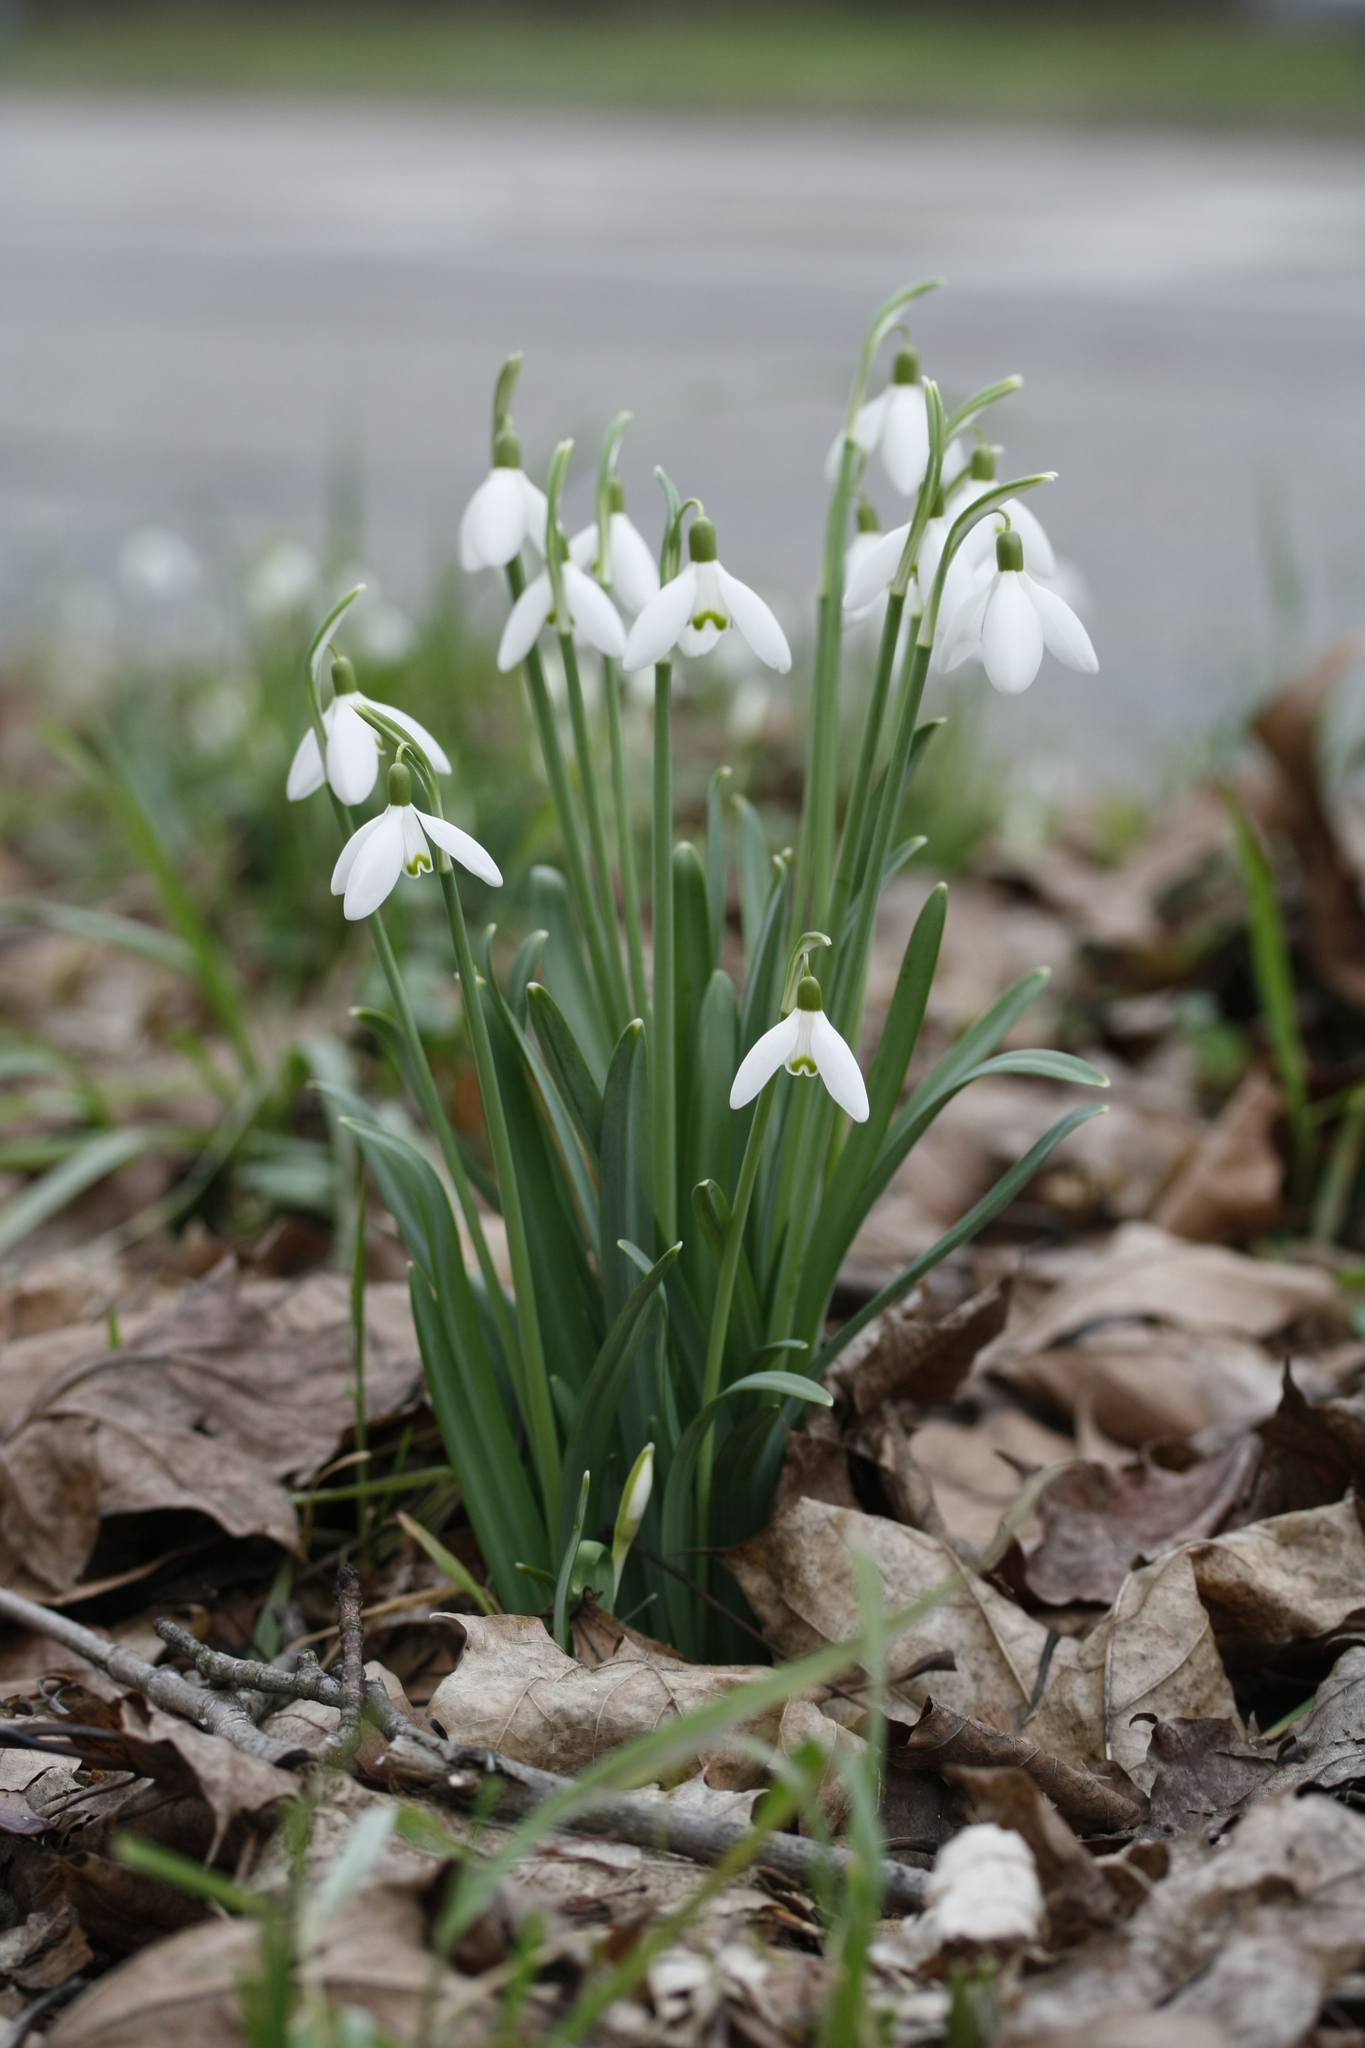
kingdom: Plantae
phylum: Tracheophyta
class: Liliopsida
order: Asparagales
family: Amaryllidaceae
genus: Galanthus
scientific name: Galanthus nivalis
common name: Snowdrop
